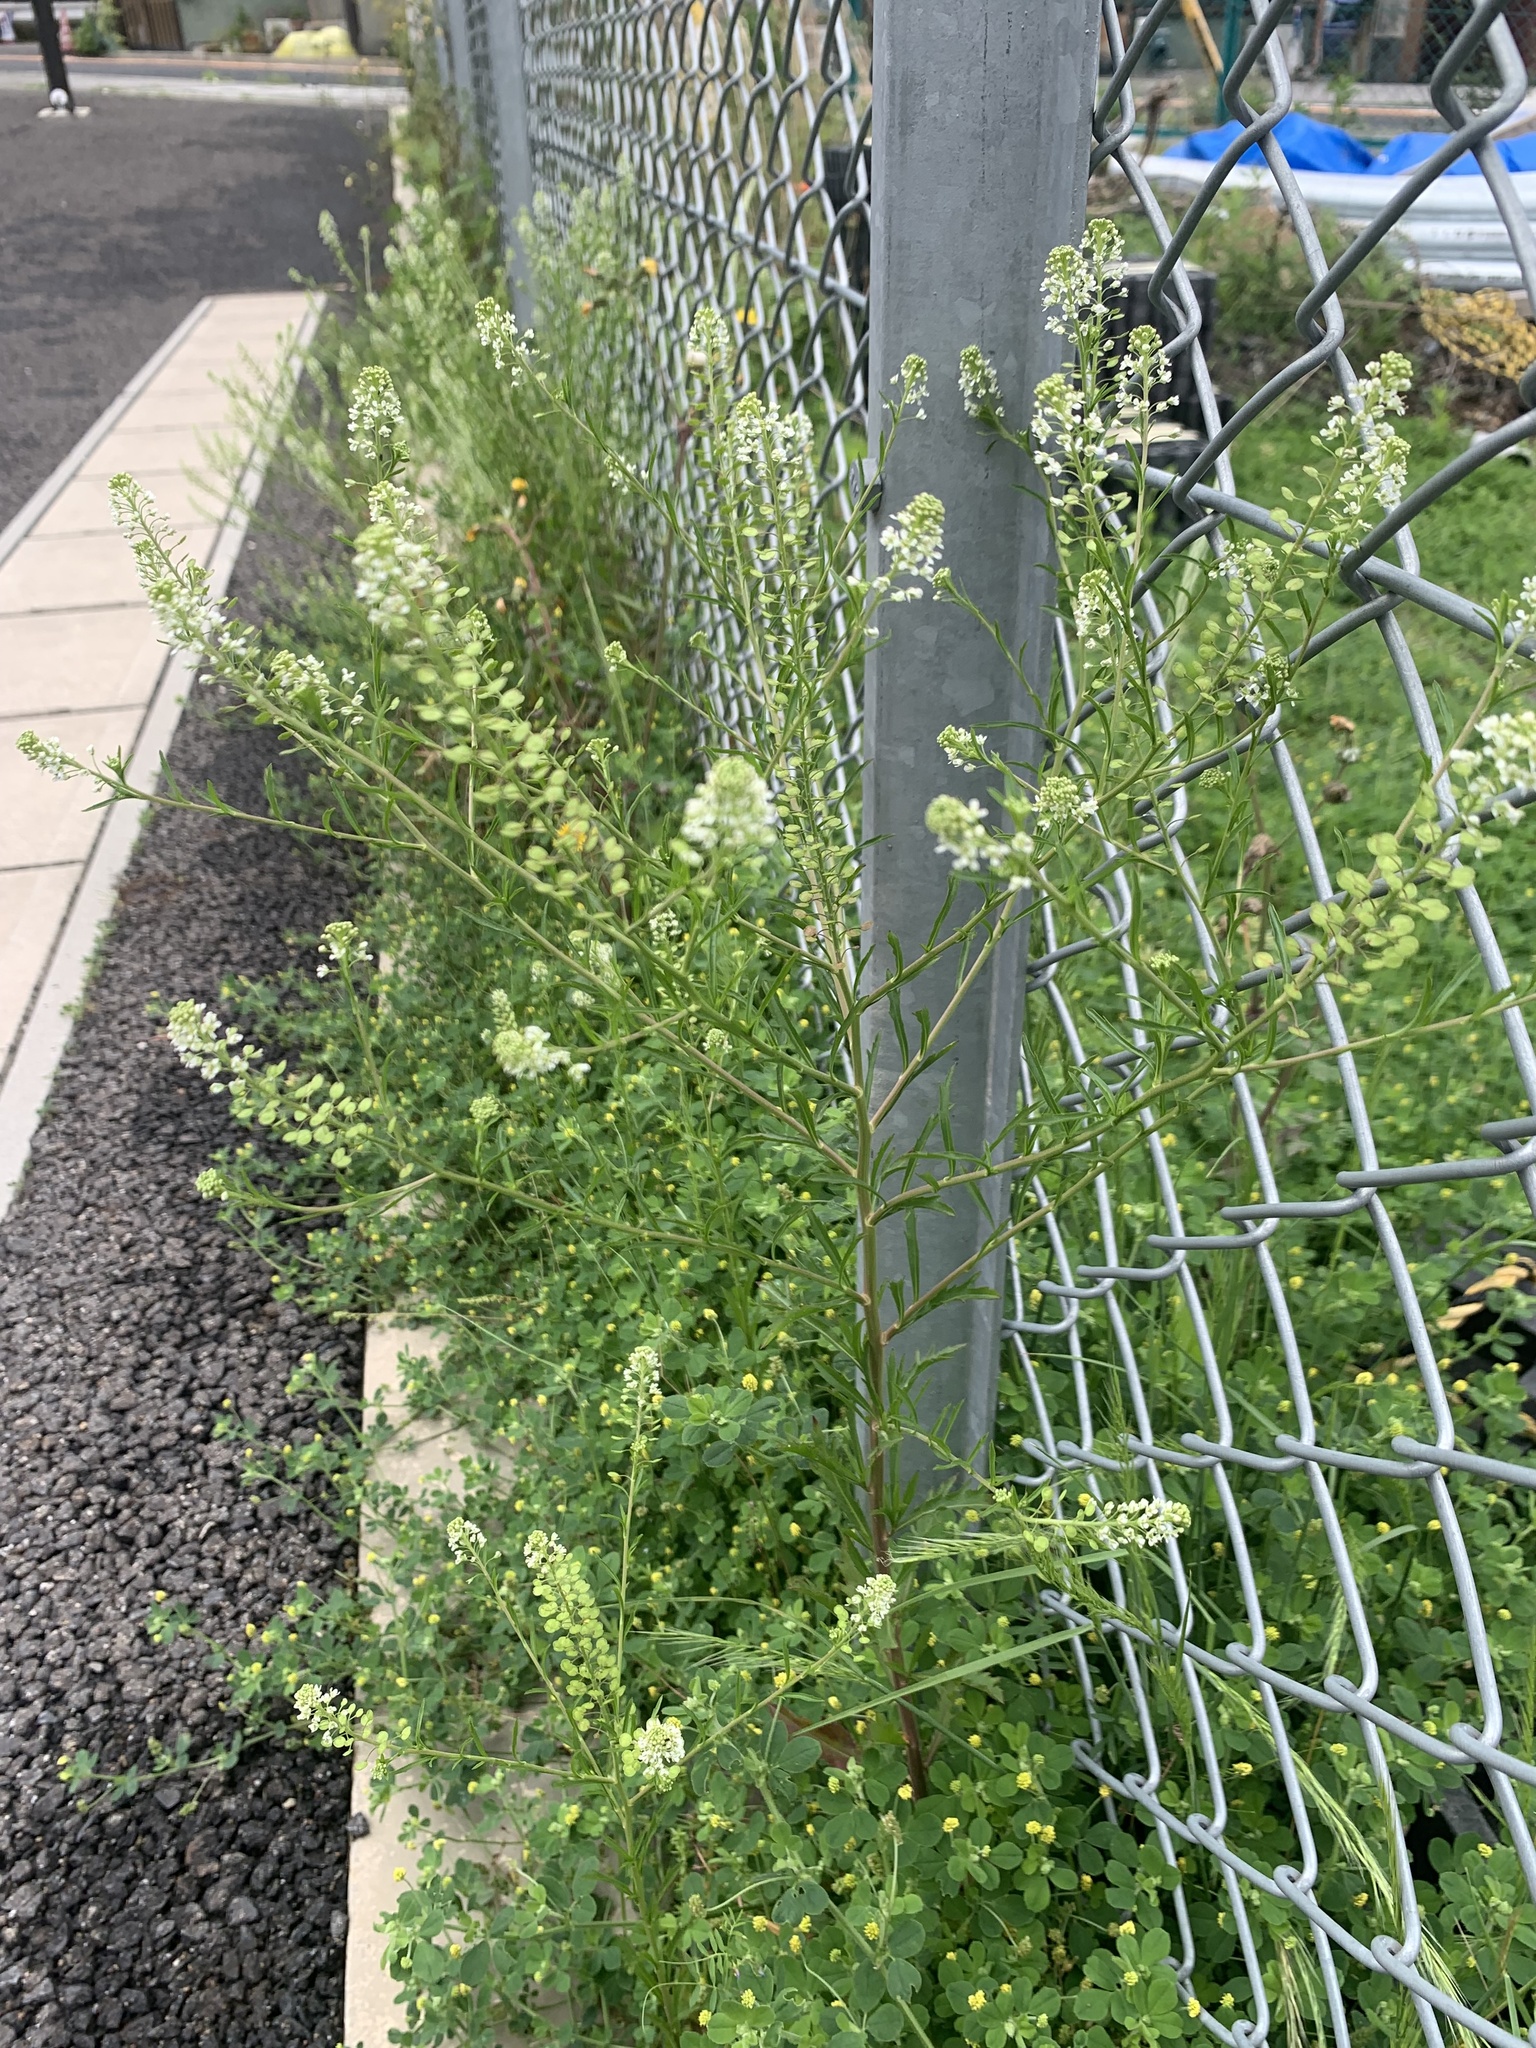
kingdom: Plantae
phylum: Tracheophyta
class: Magnoliopsida
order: Brassicales
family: Brassicaceae
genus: Lepidium
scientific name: Lepidium virginicum
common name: Least pepperwort
